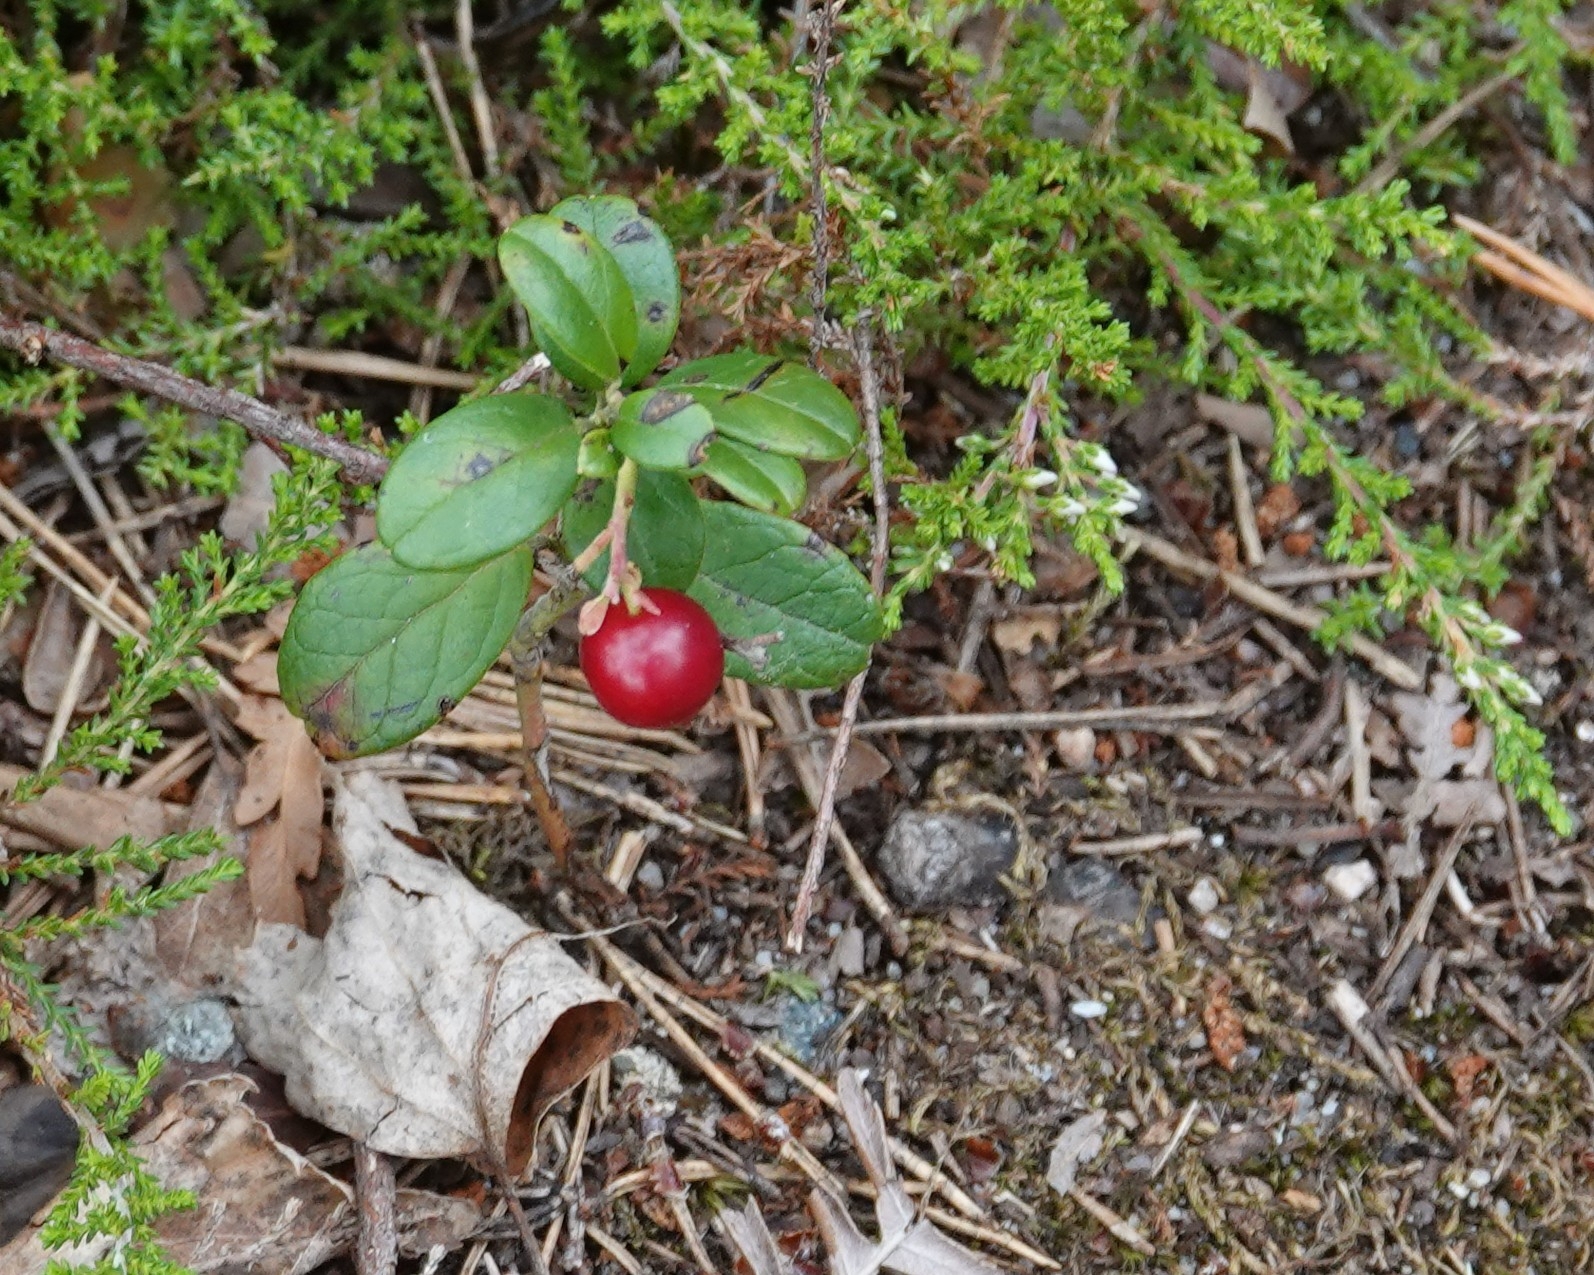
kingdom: Plantae
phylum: Tracheophyta
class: Magnoliopsida
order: Ericales
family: Ericaceae
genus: Vaccinium
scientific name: Vaccinium vitis-idaea
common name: Cowberry
